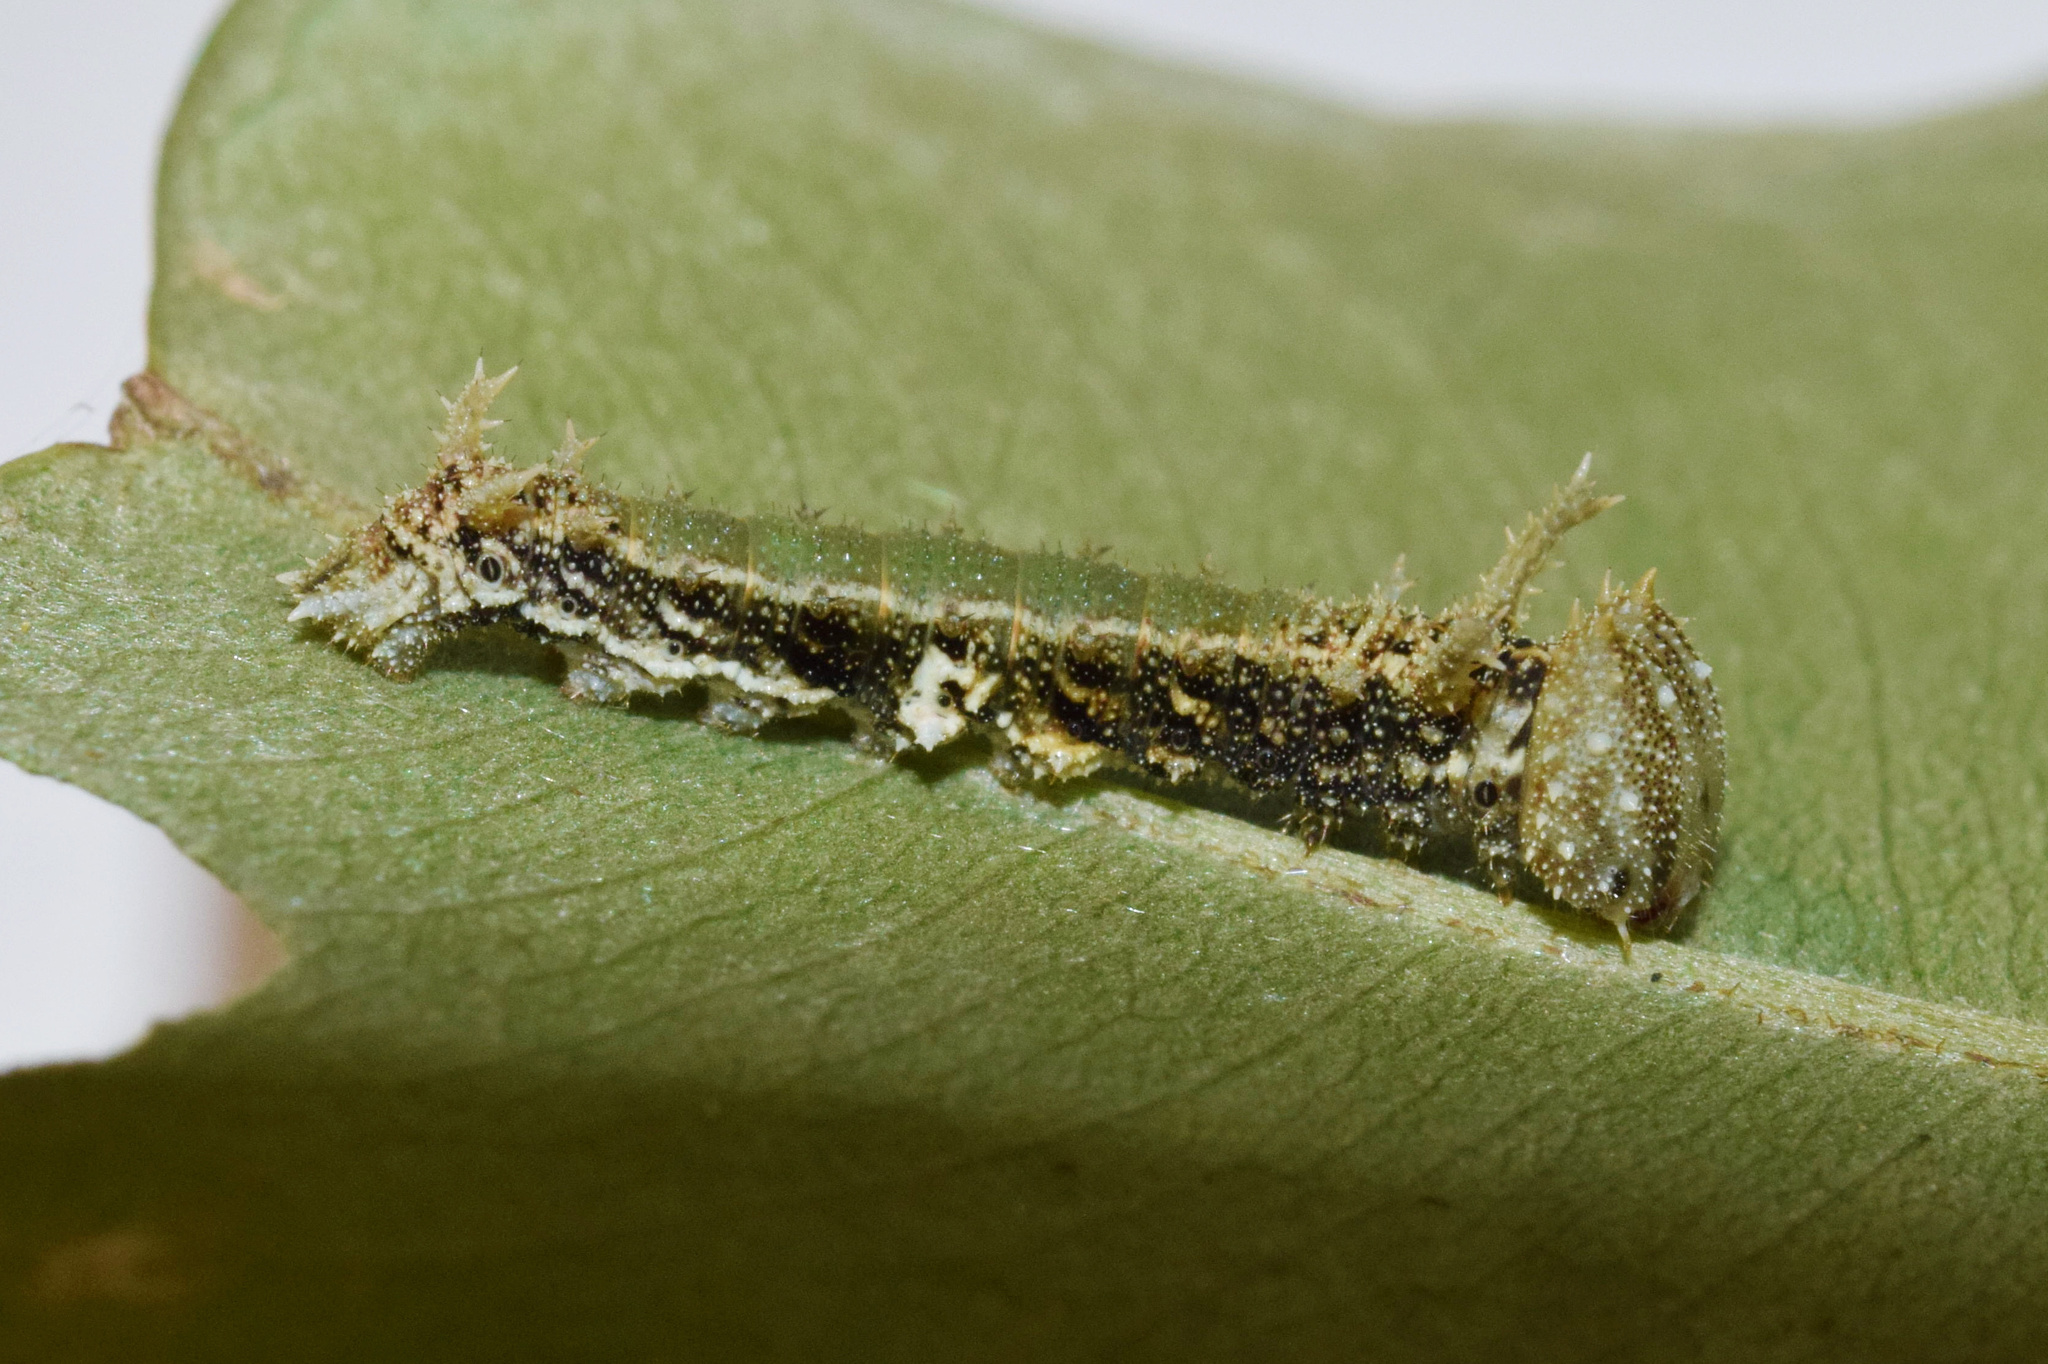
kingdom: Animalia
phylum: Arthropoda
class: Insecta
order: Lepidoptera
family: Nymphalidae
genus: Chloropoea
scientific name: Chloropoea eurytus
